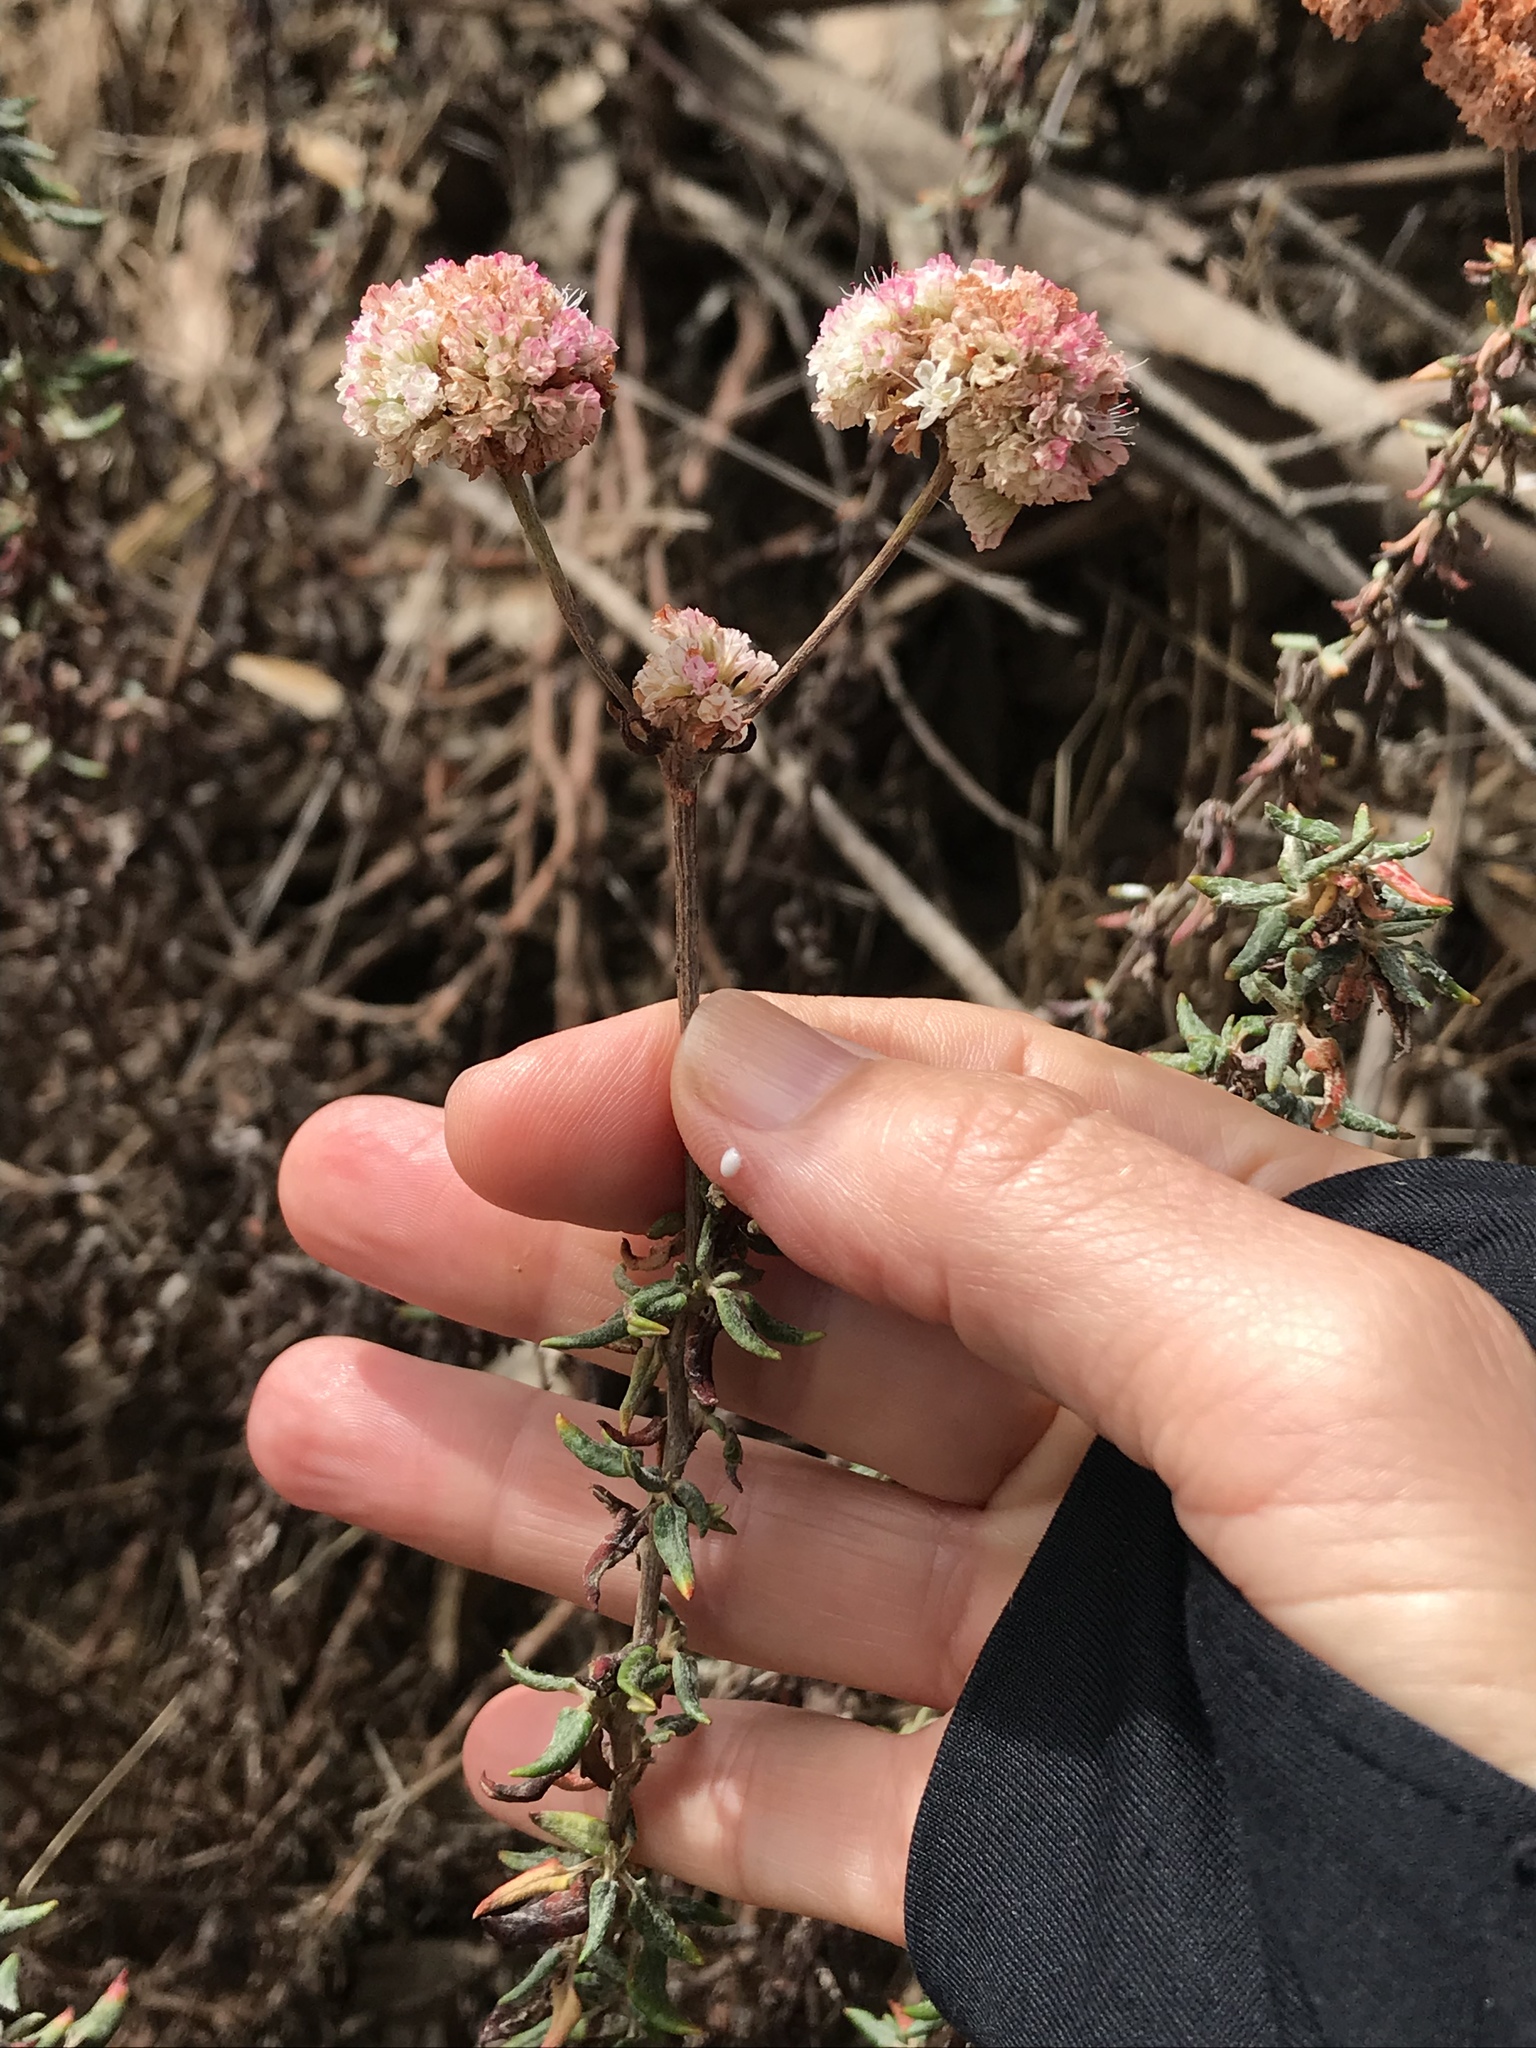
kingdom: Plantae
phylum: Tracheophyta
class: Magnoliopsida
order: Caryophyllales
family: Polygonaceae
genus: Eriogonum
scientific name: Eriogonum parvifolium
